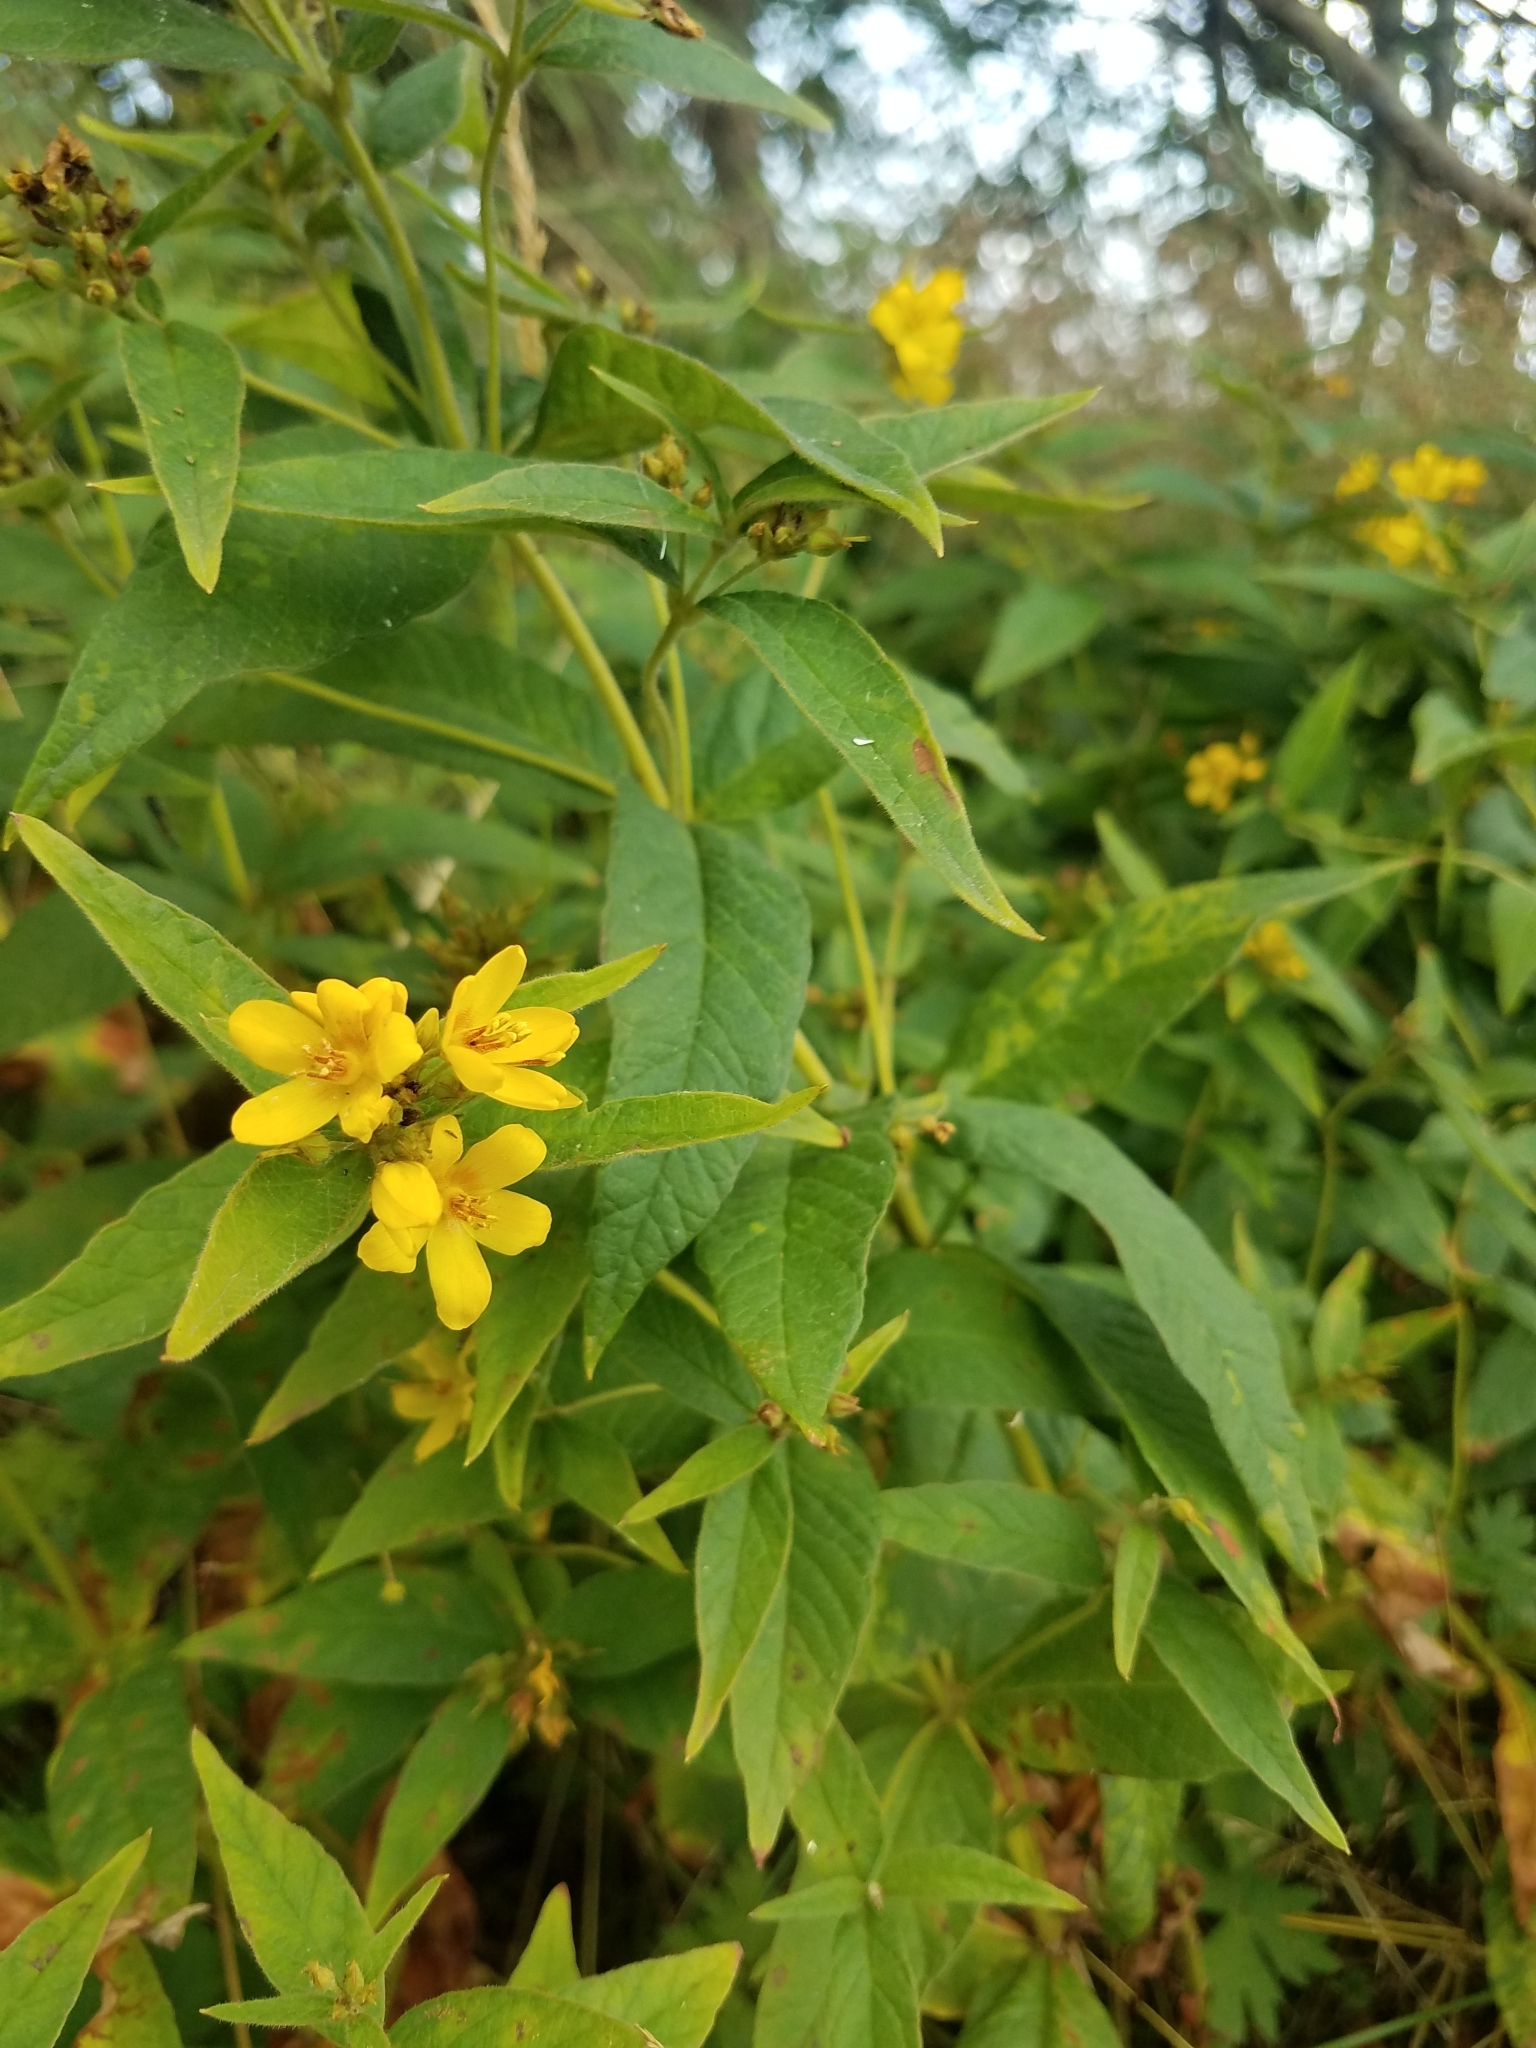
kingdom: Plantae
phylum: Tracheophyta
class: Magnoliopsida
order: Ericales
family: Primulaceae
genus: Lysimachia
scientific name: Lysimachia vulgaris
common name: Yellow loosestrife
